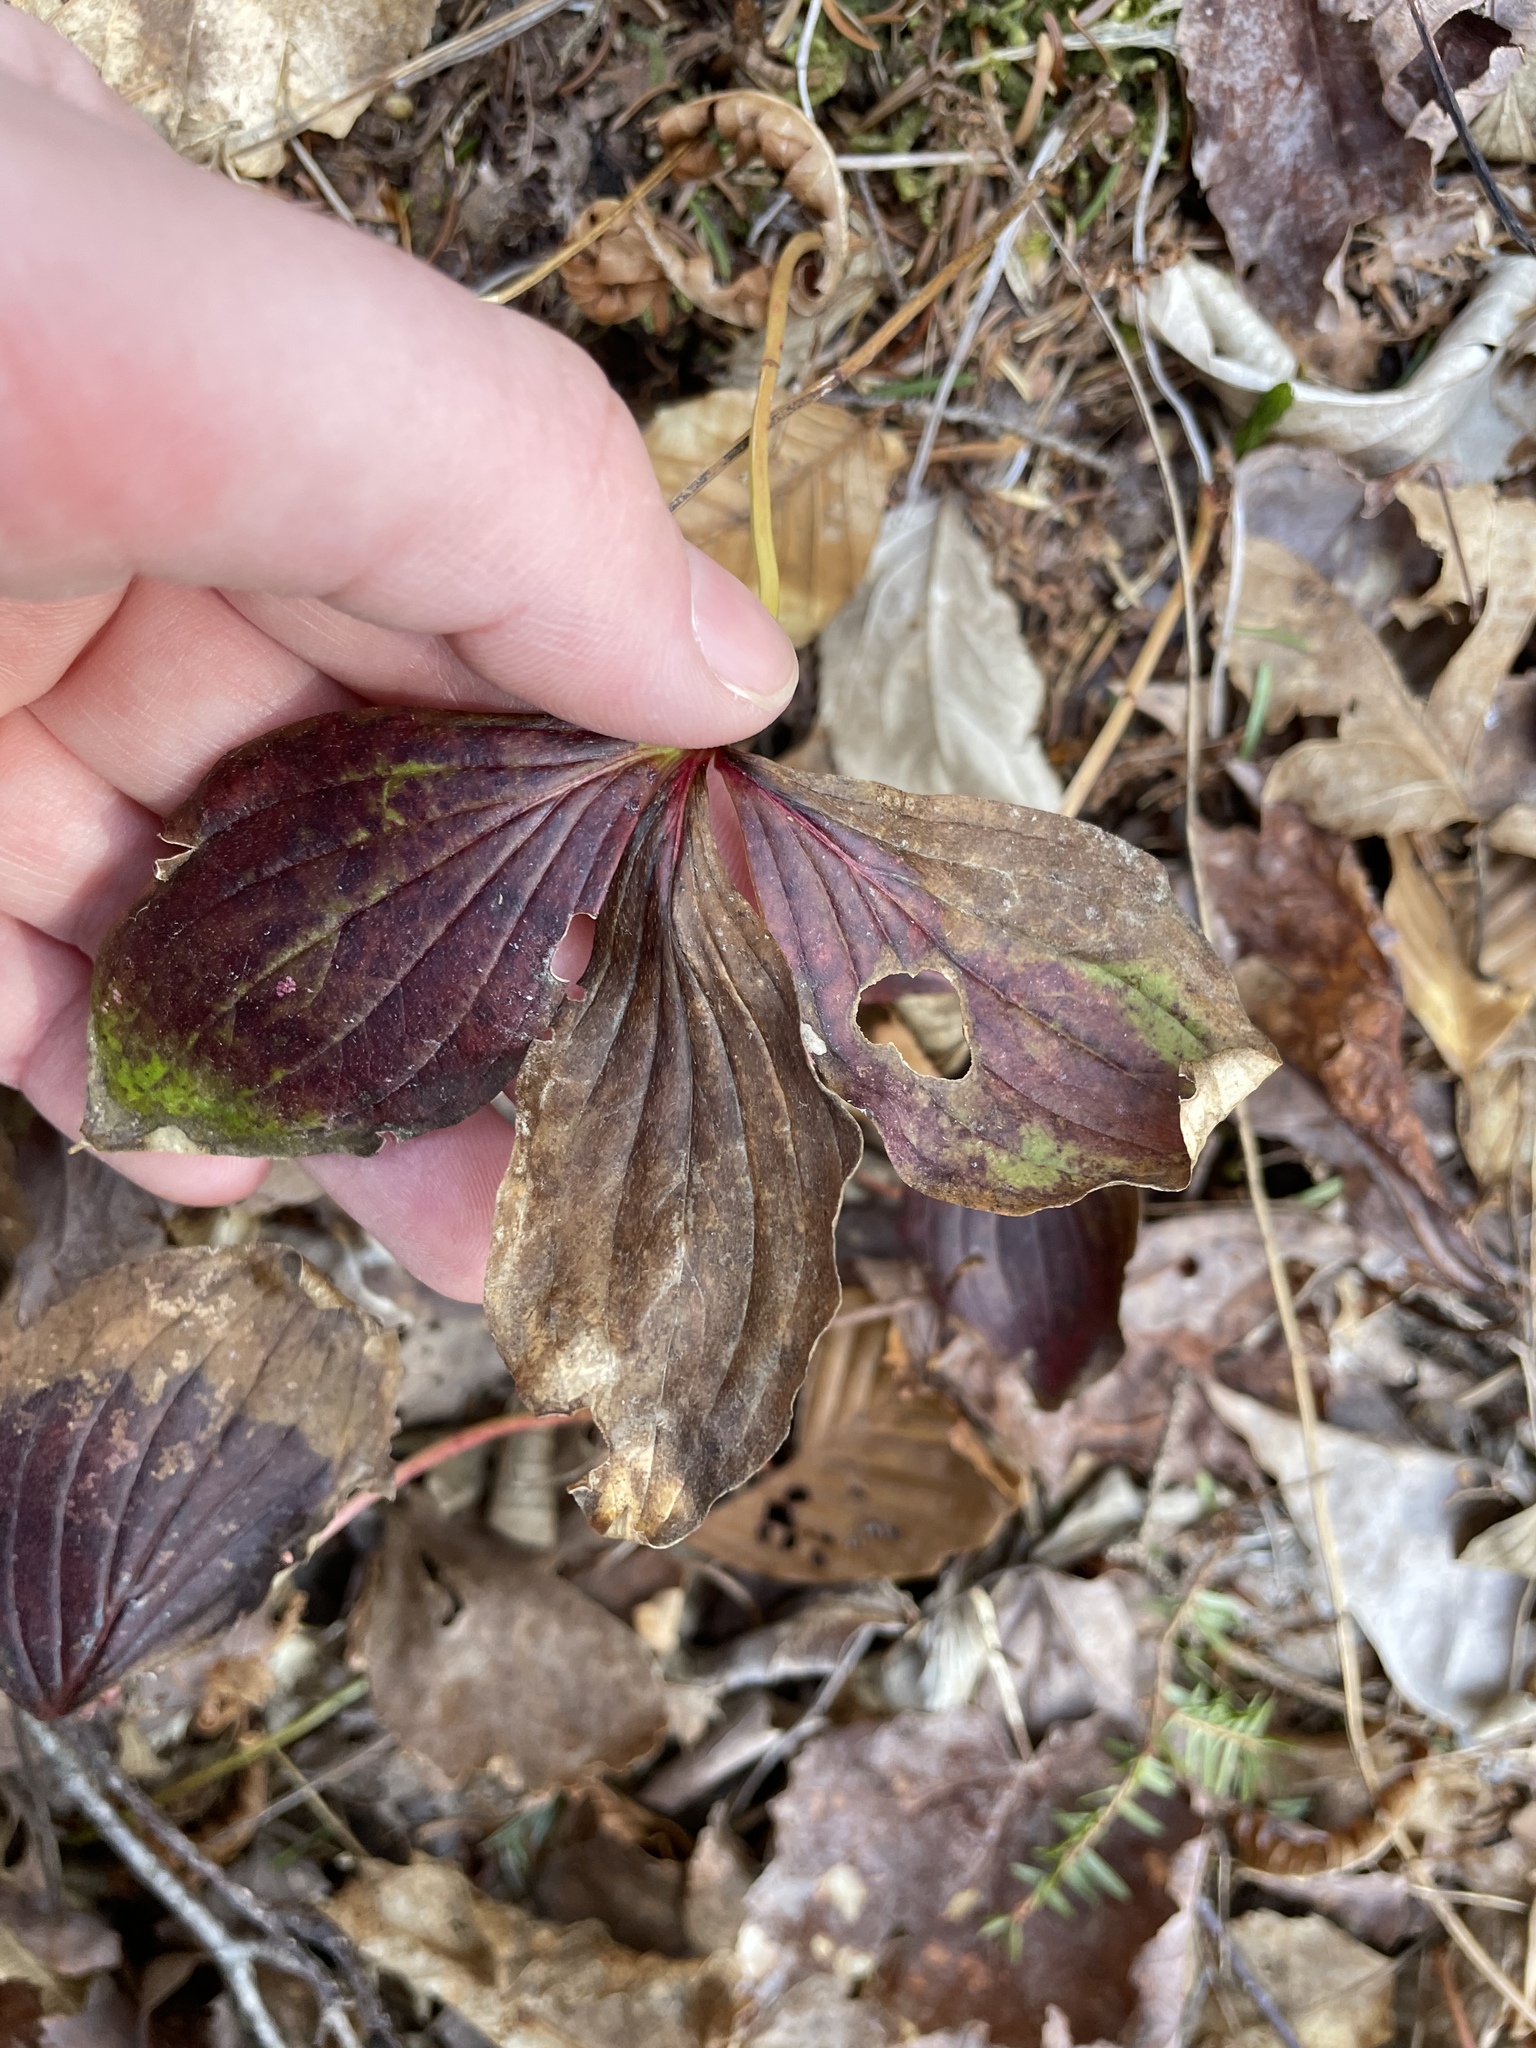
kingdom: Plantae
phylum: Tracheophyta
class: Magnoliopsida
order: Cornales
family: Cornaceae
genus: Cornus
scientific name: Cornus canadensis
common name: Creeping dogwood
